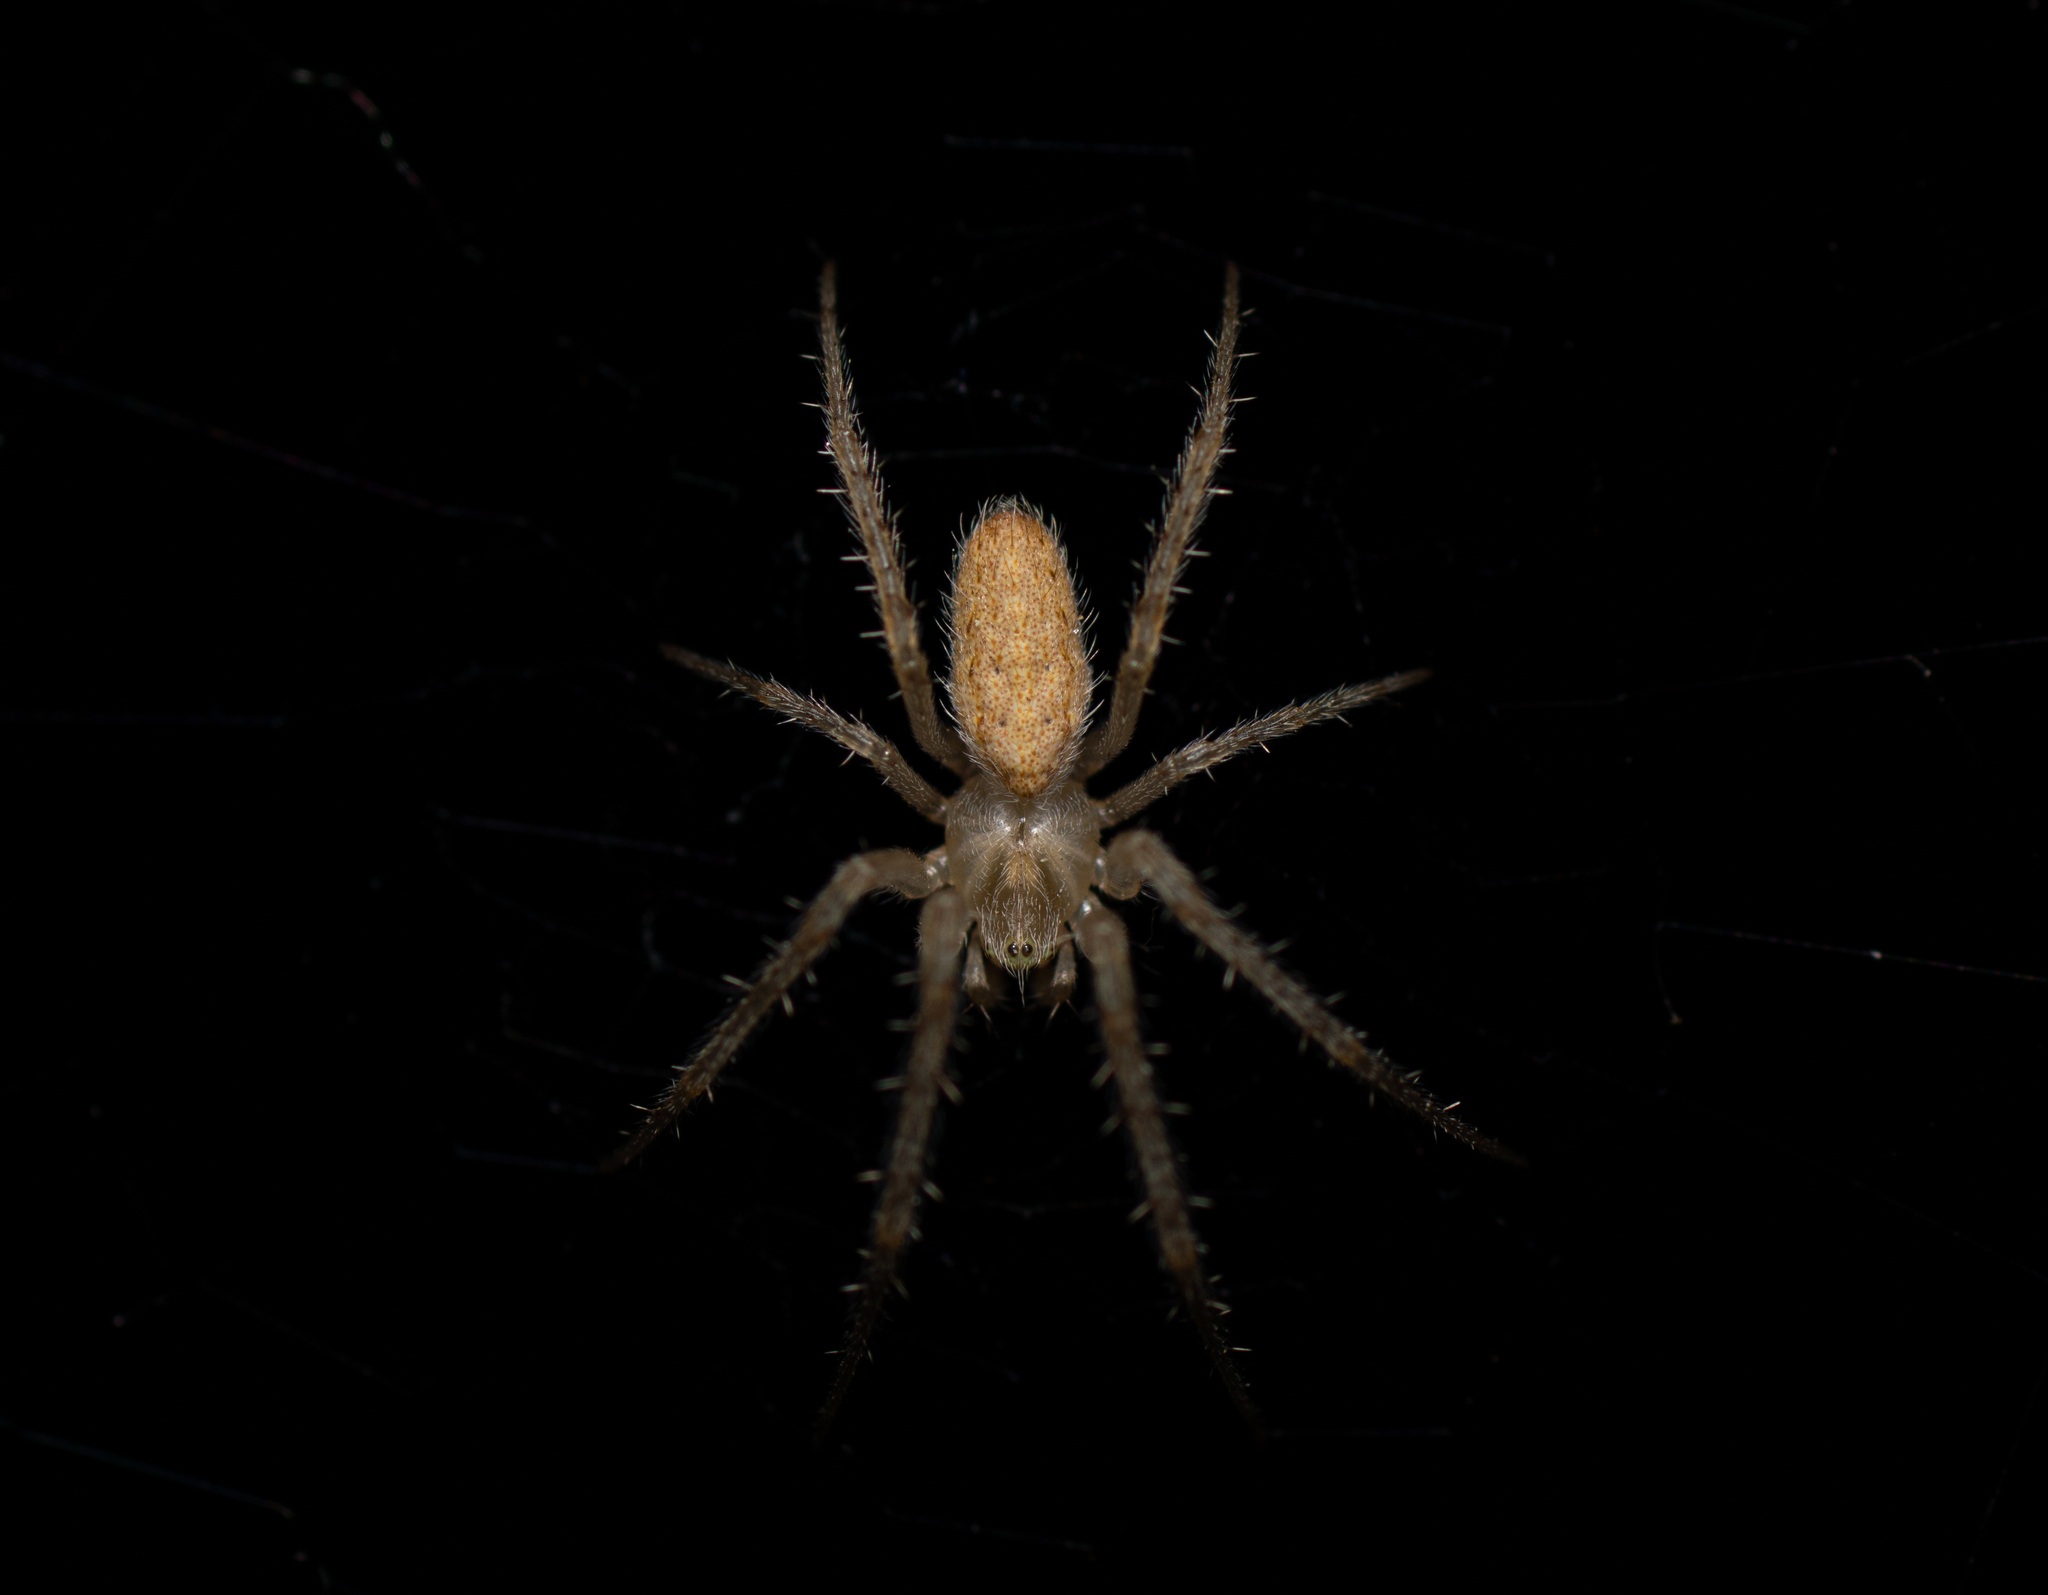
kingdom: Animalia
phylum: Arthropoda
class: Arachnida
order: Araneae
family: Araneidae
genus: Larinia
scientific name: Larinia lineata
